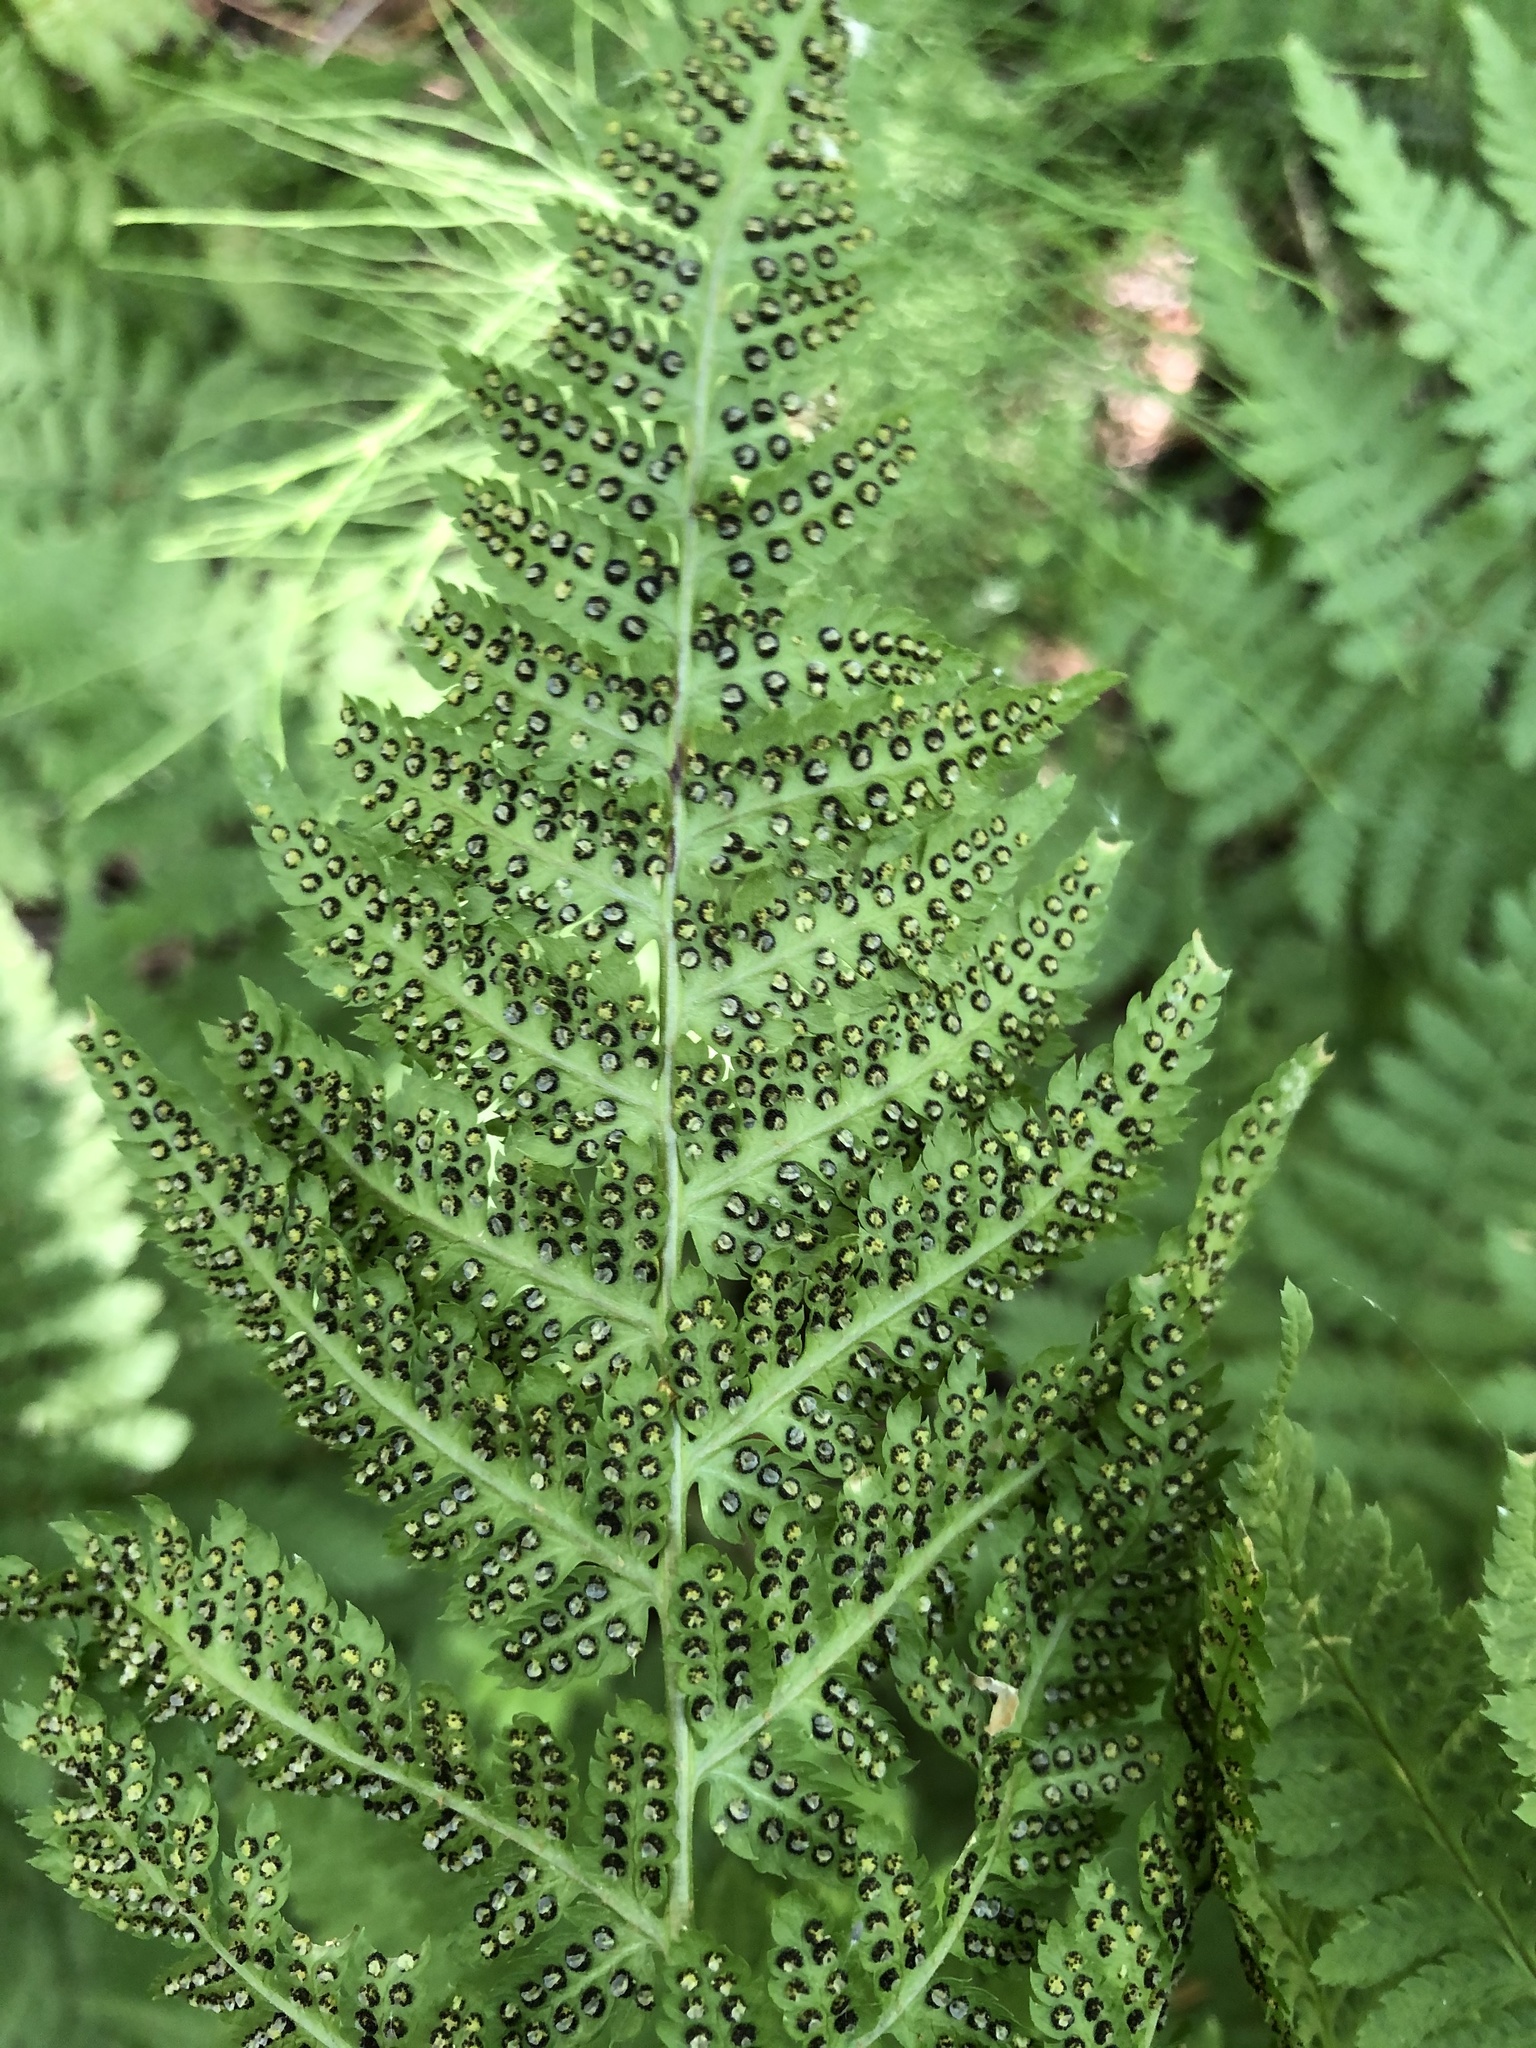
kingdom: Plantae
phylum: Tracheophyta
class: Polypodiopsida
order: Polypodiales
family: Dryopteridaceae
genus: Dryopteris
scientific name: Dryopteris carthusiana
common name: Narrow buckler-fern
